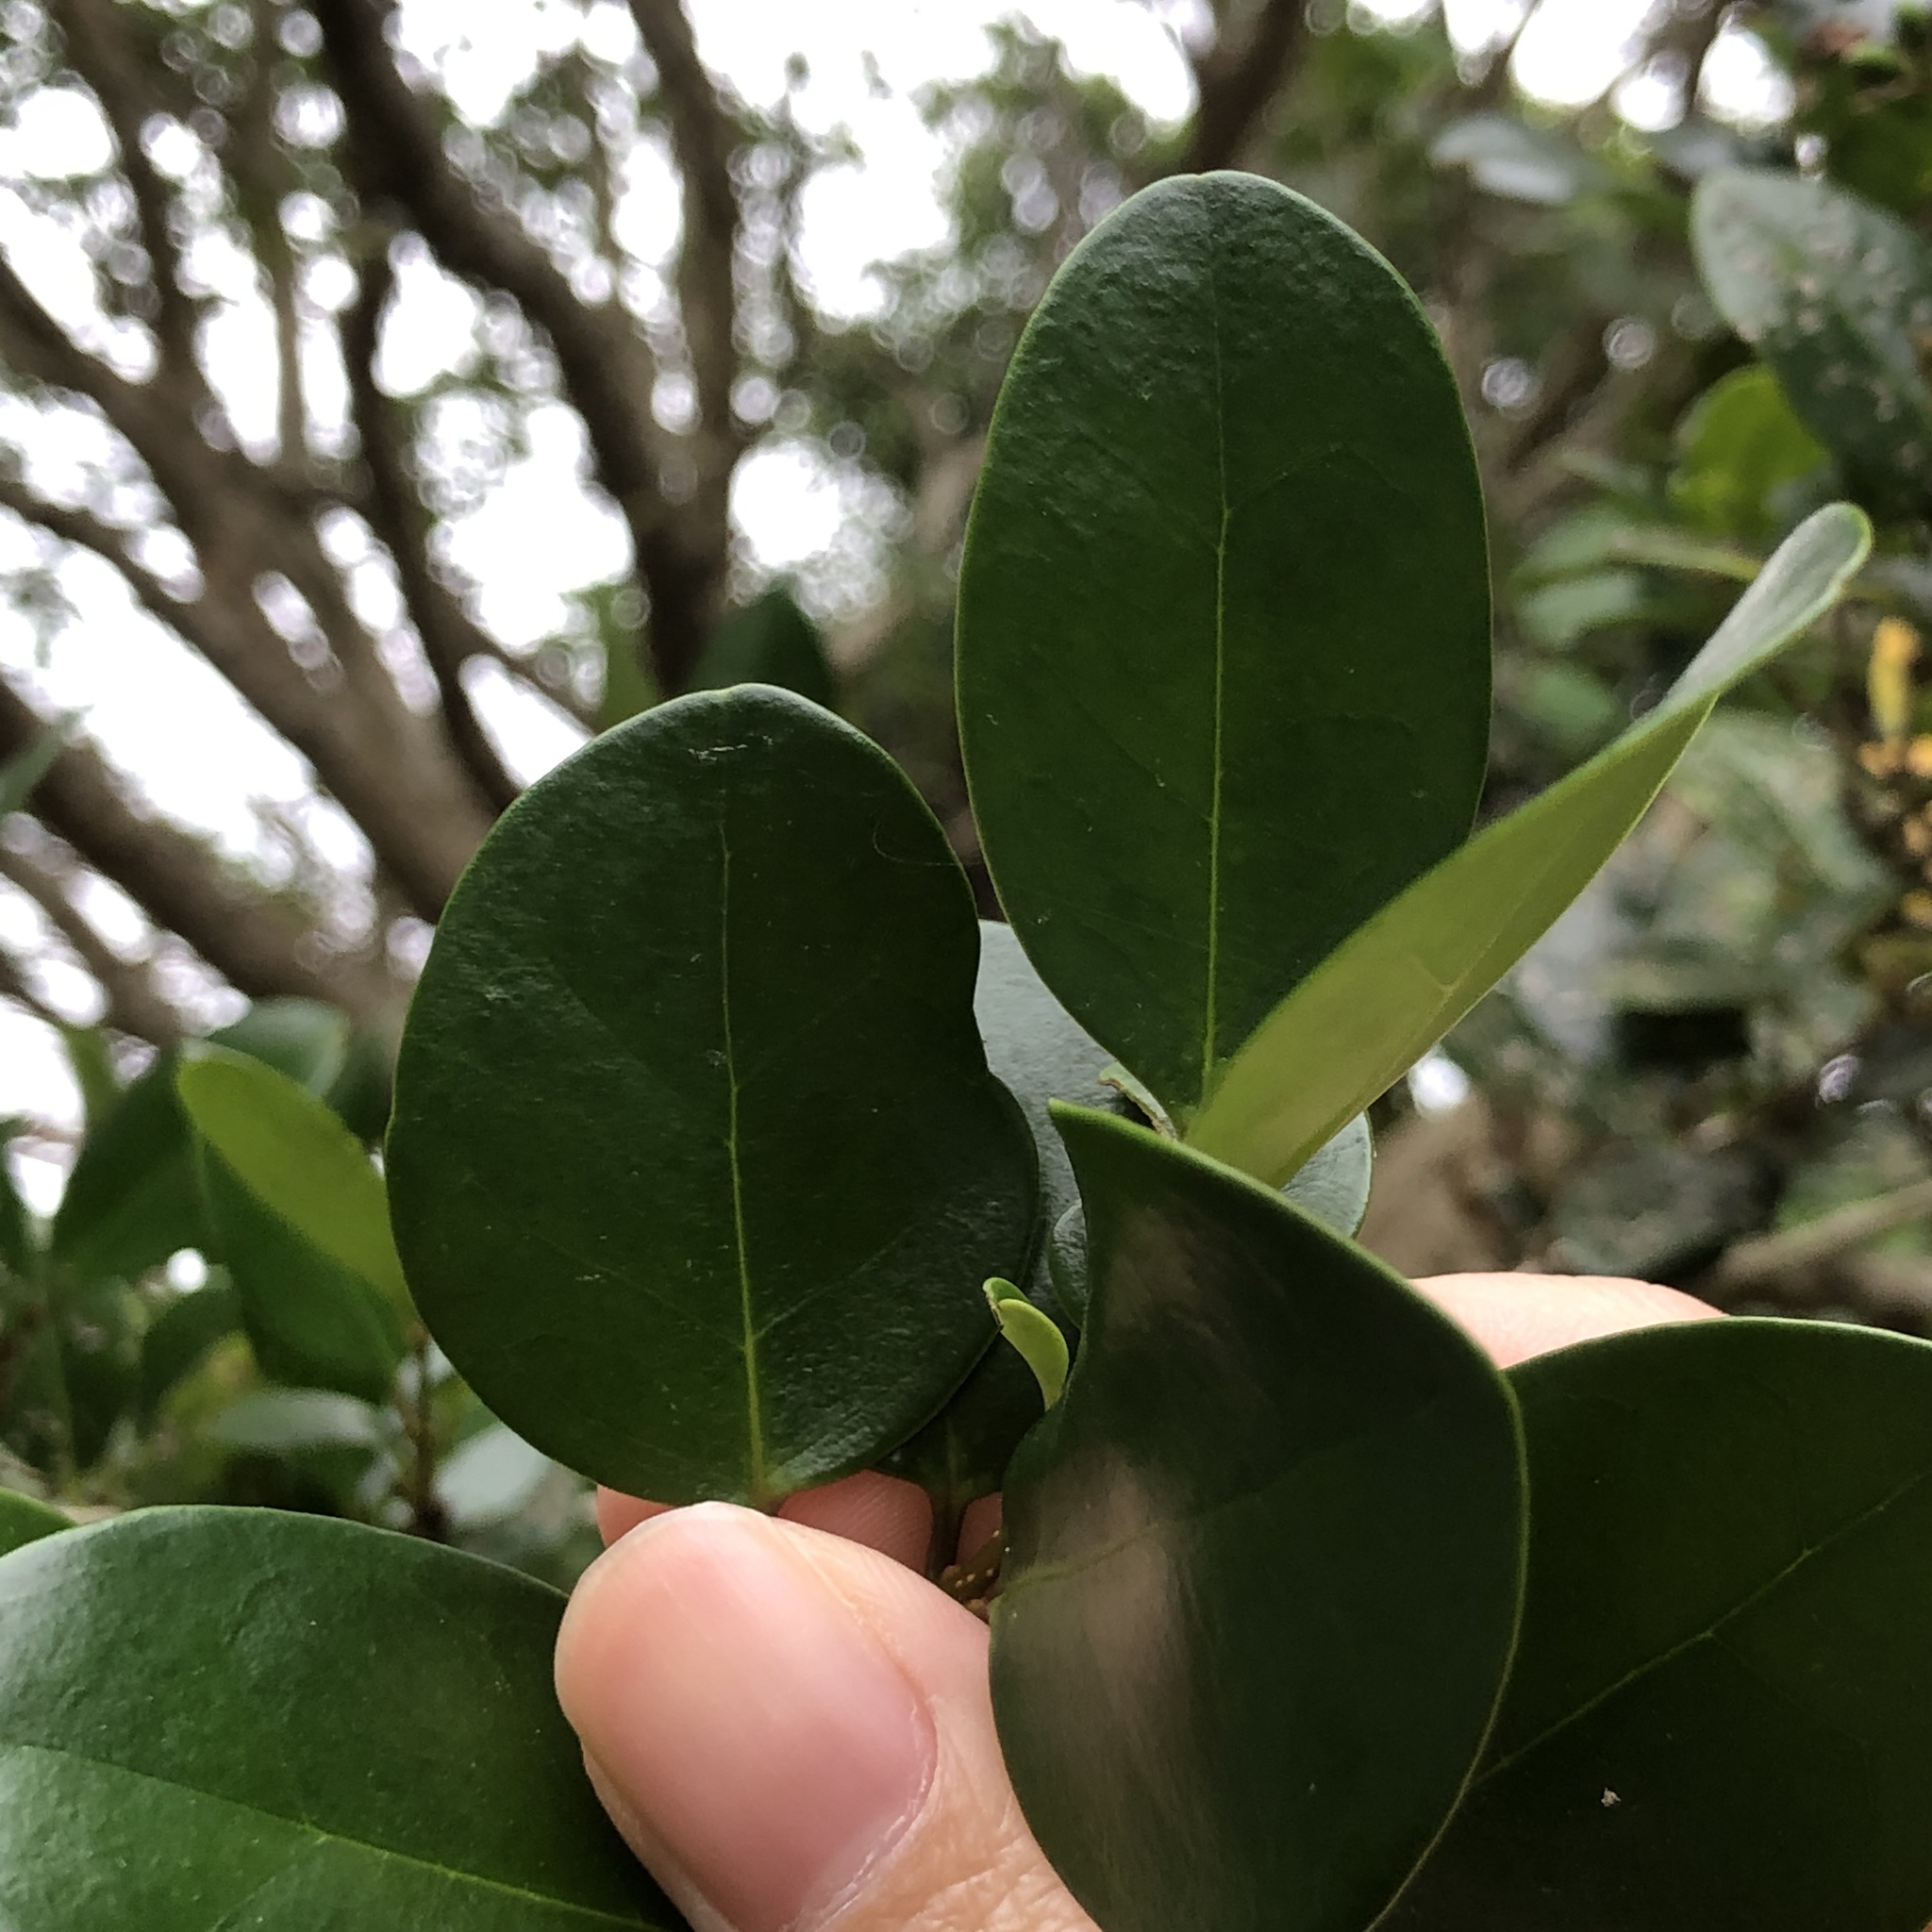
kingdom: Plantae
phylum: Tracheophyta
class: Magnoliopsida
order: Lamiales
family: Oleaceae
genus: Ligustrum
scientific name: Ligustrum japonicum
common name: Japanese privet
